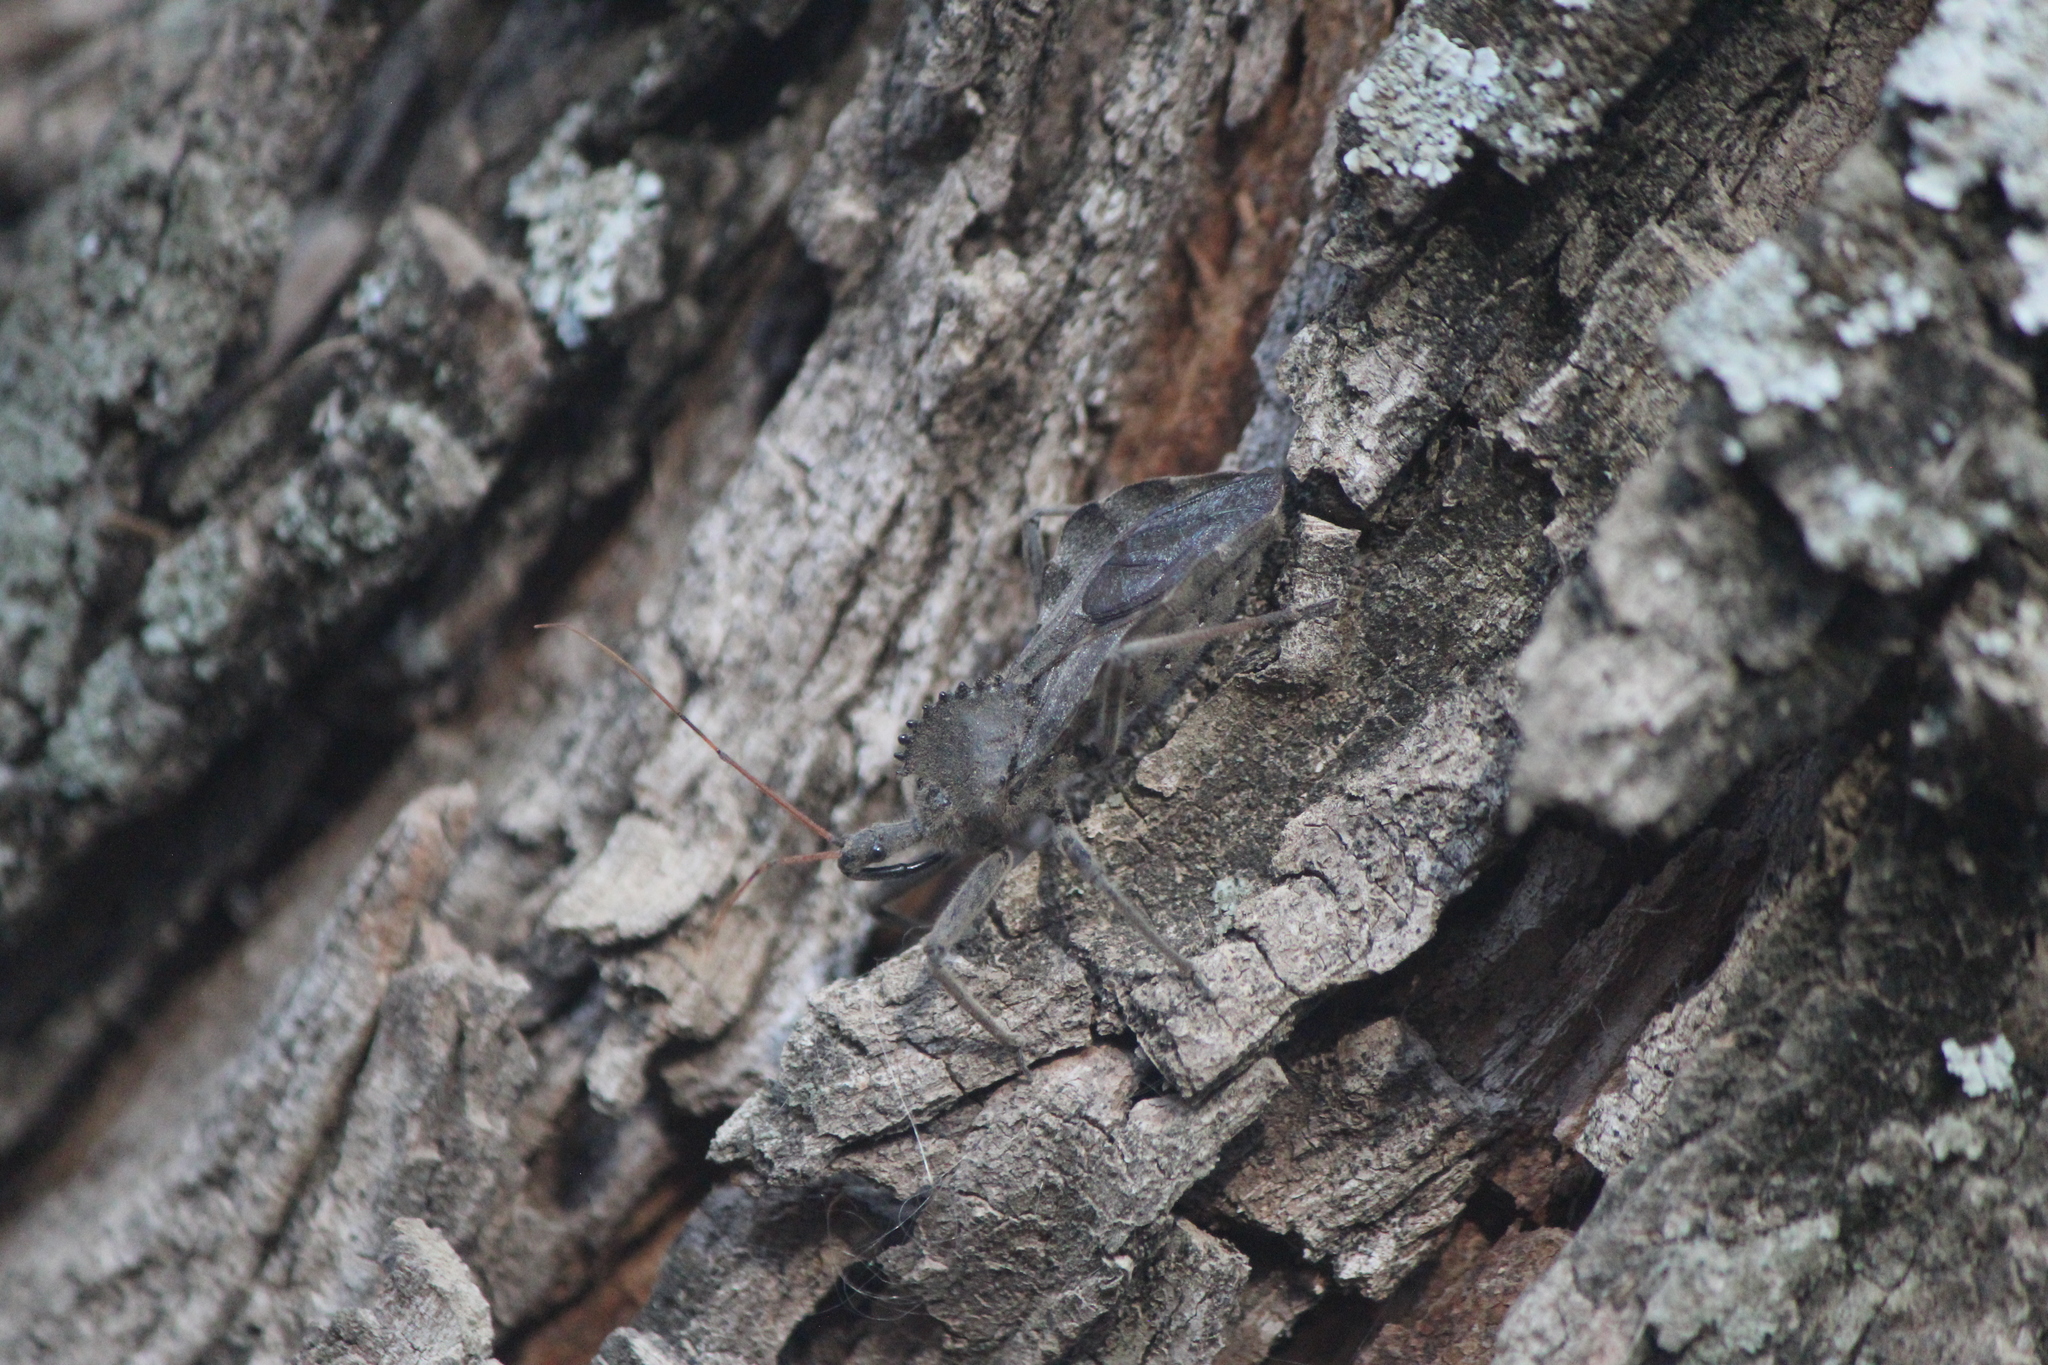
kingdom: Animalia
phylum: Arthropoda
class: Insecta
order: Hemiptera
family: Reduviidae
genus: Arilus
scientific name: Arilus cristatus
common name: North american wheel bug
